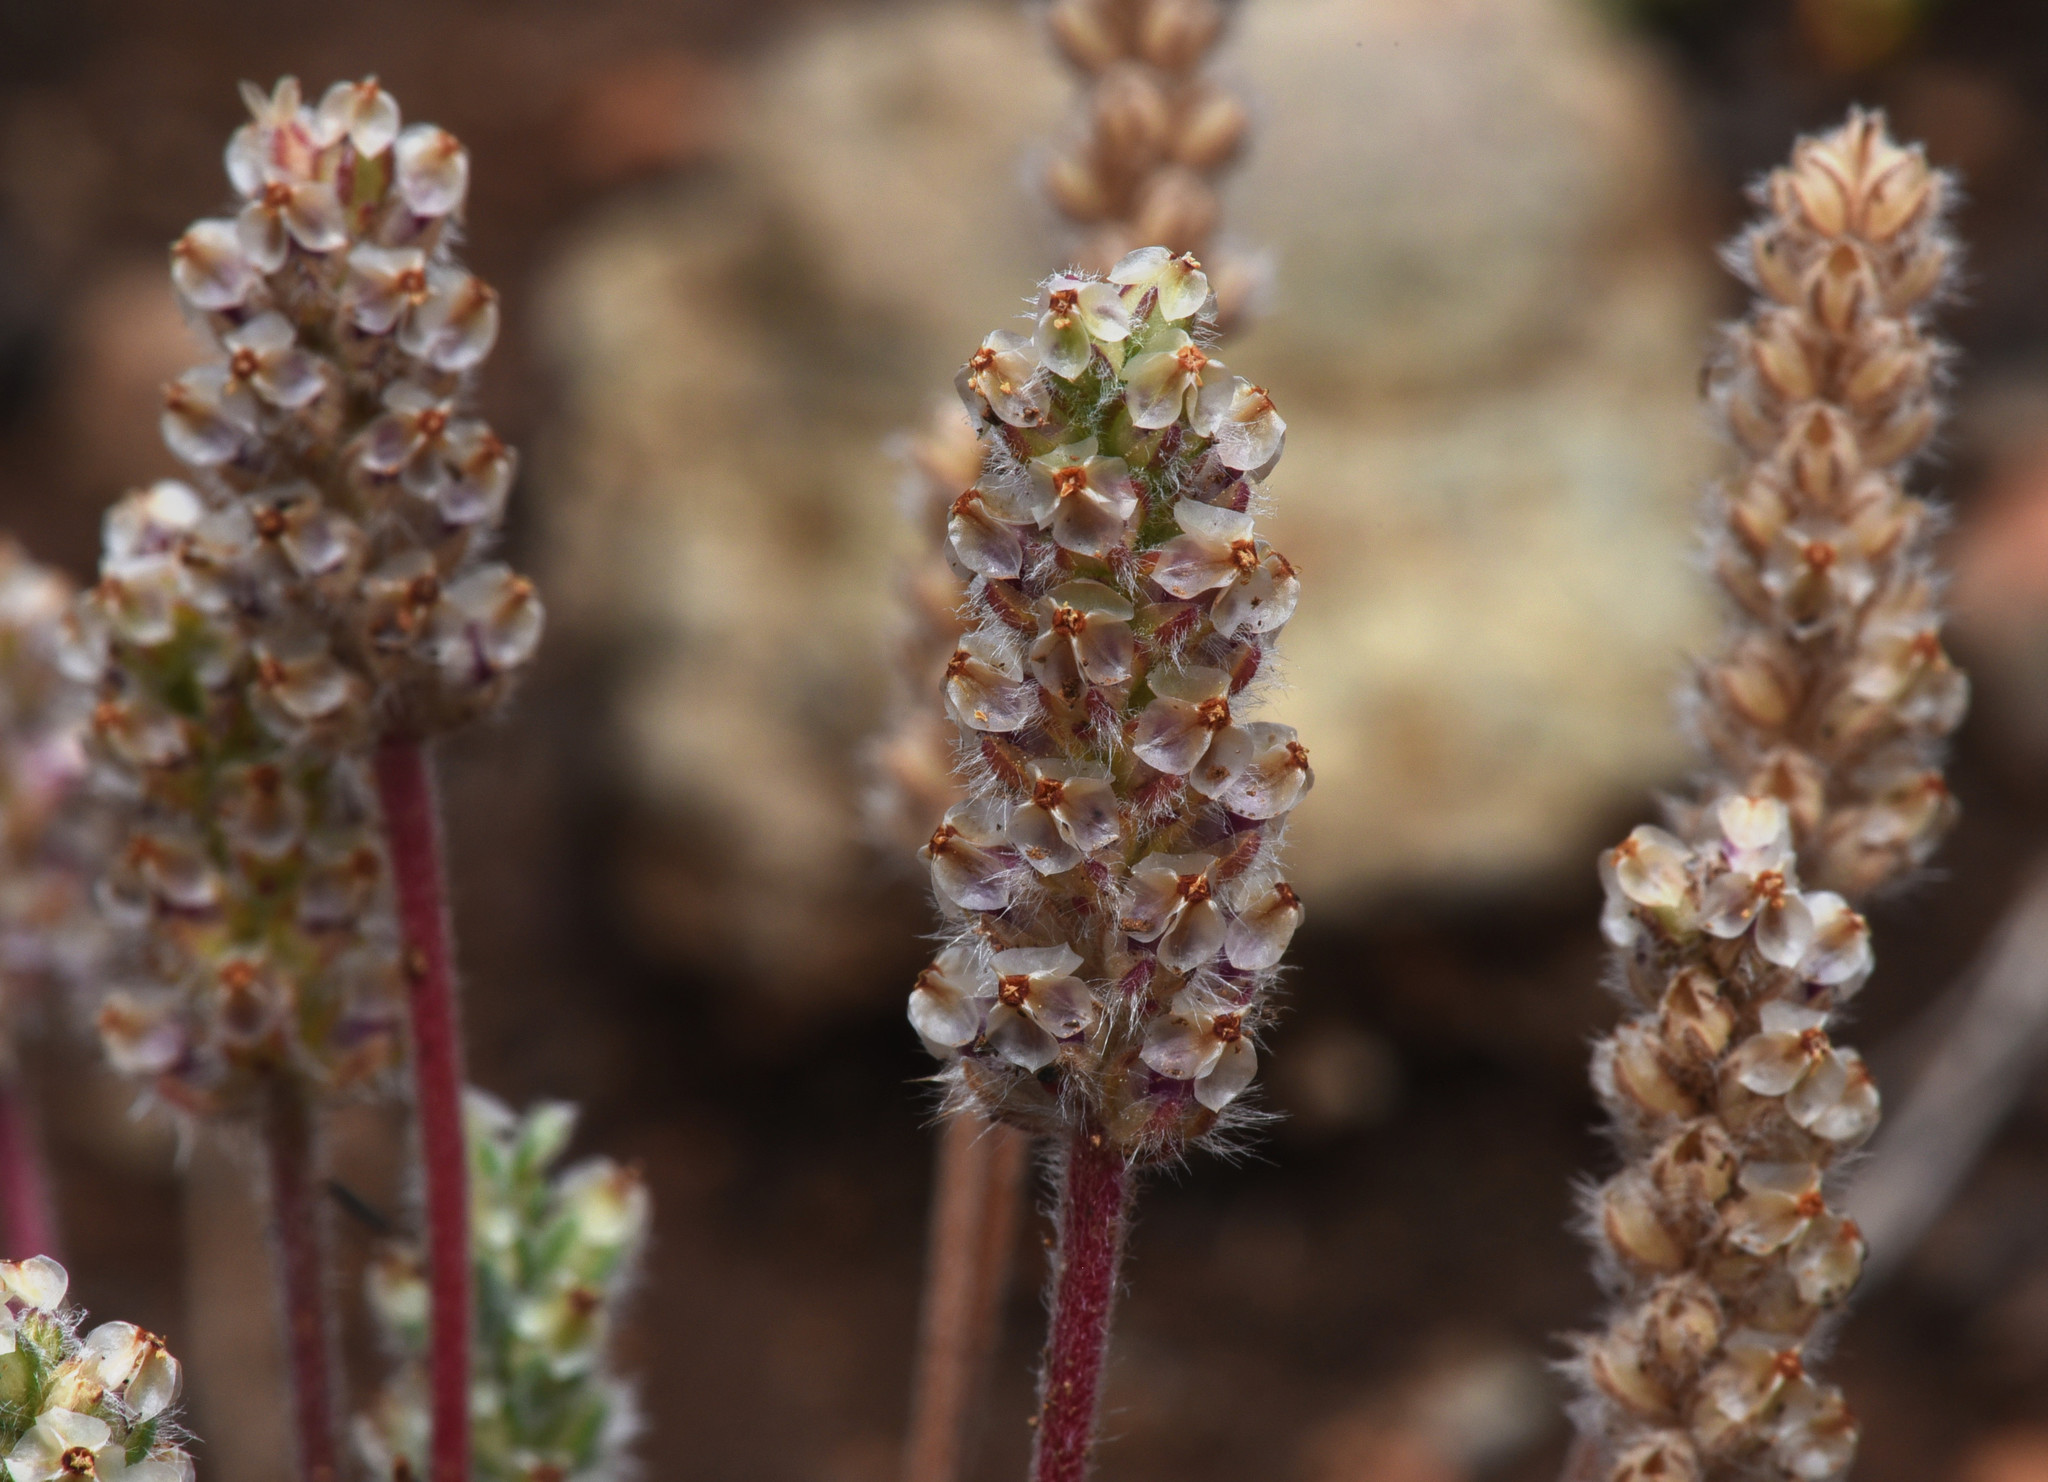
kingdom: Plantae
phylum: Tracheophyta
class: Magnoliopsida
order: Lamiales
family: Plantaginaceae
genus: Plantago
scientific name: Plantago erecta
